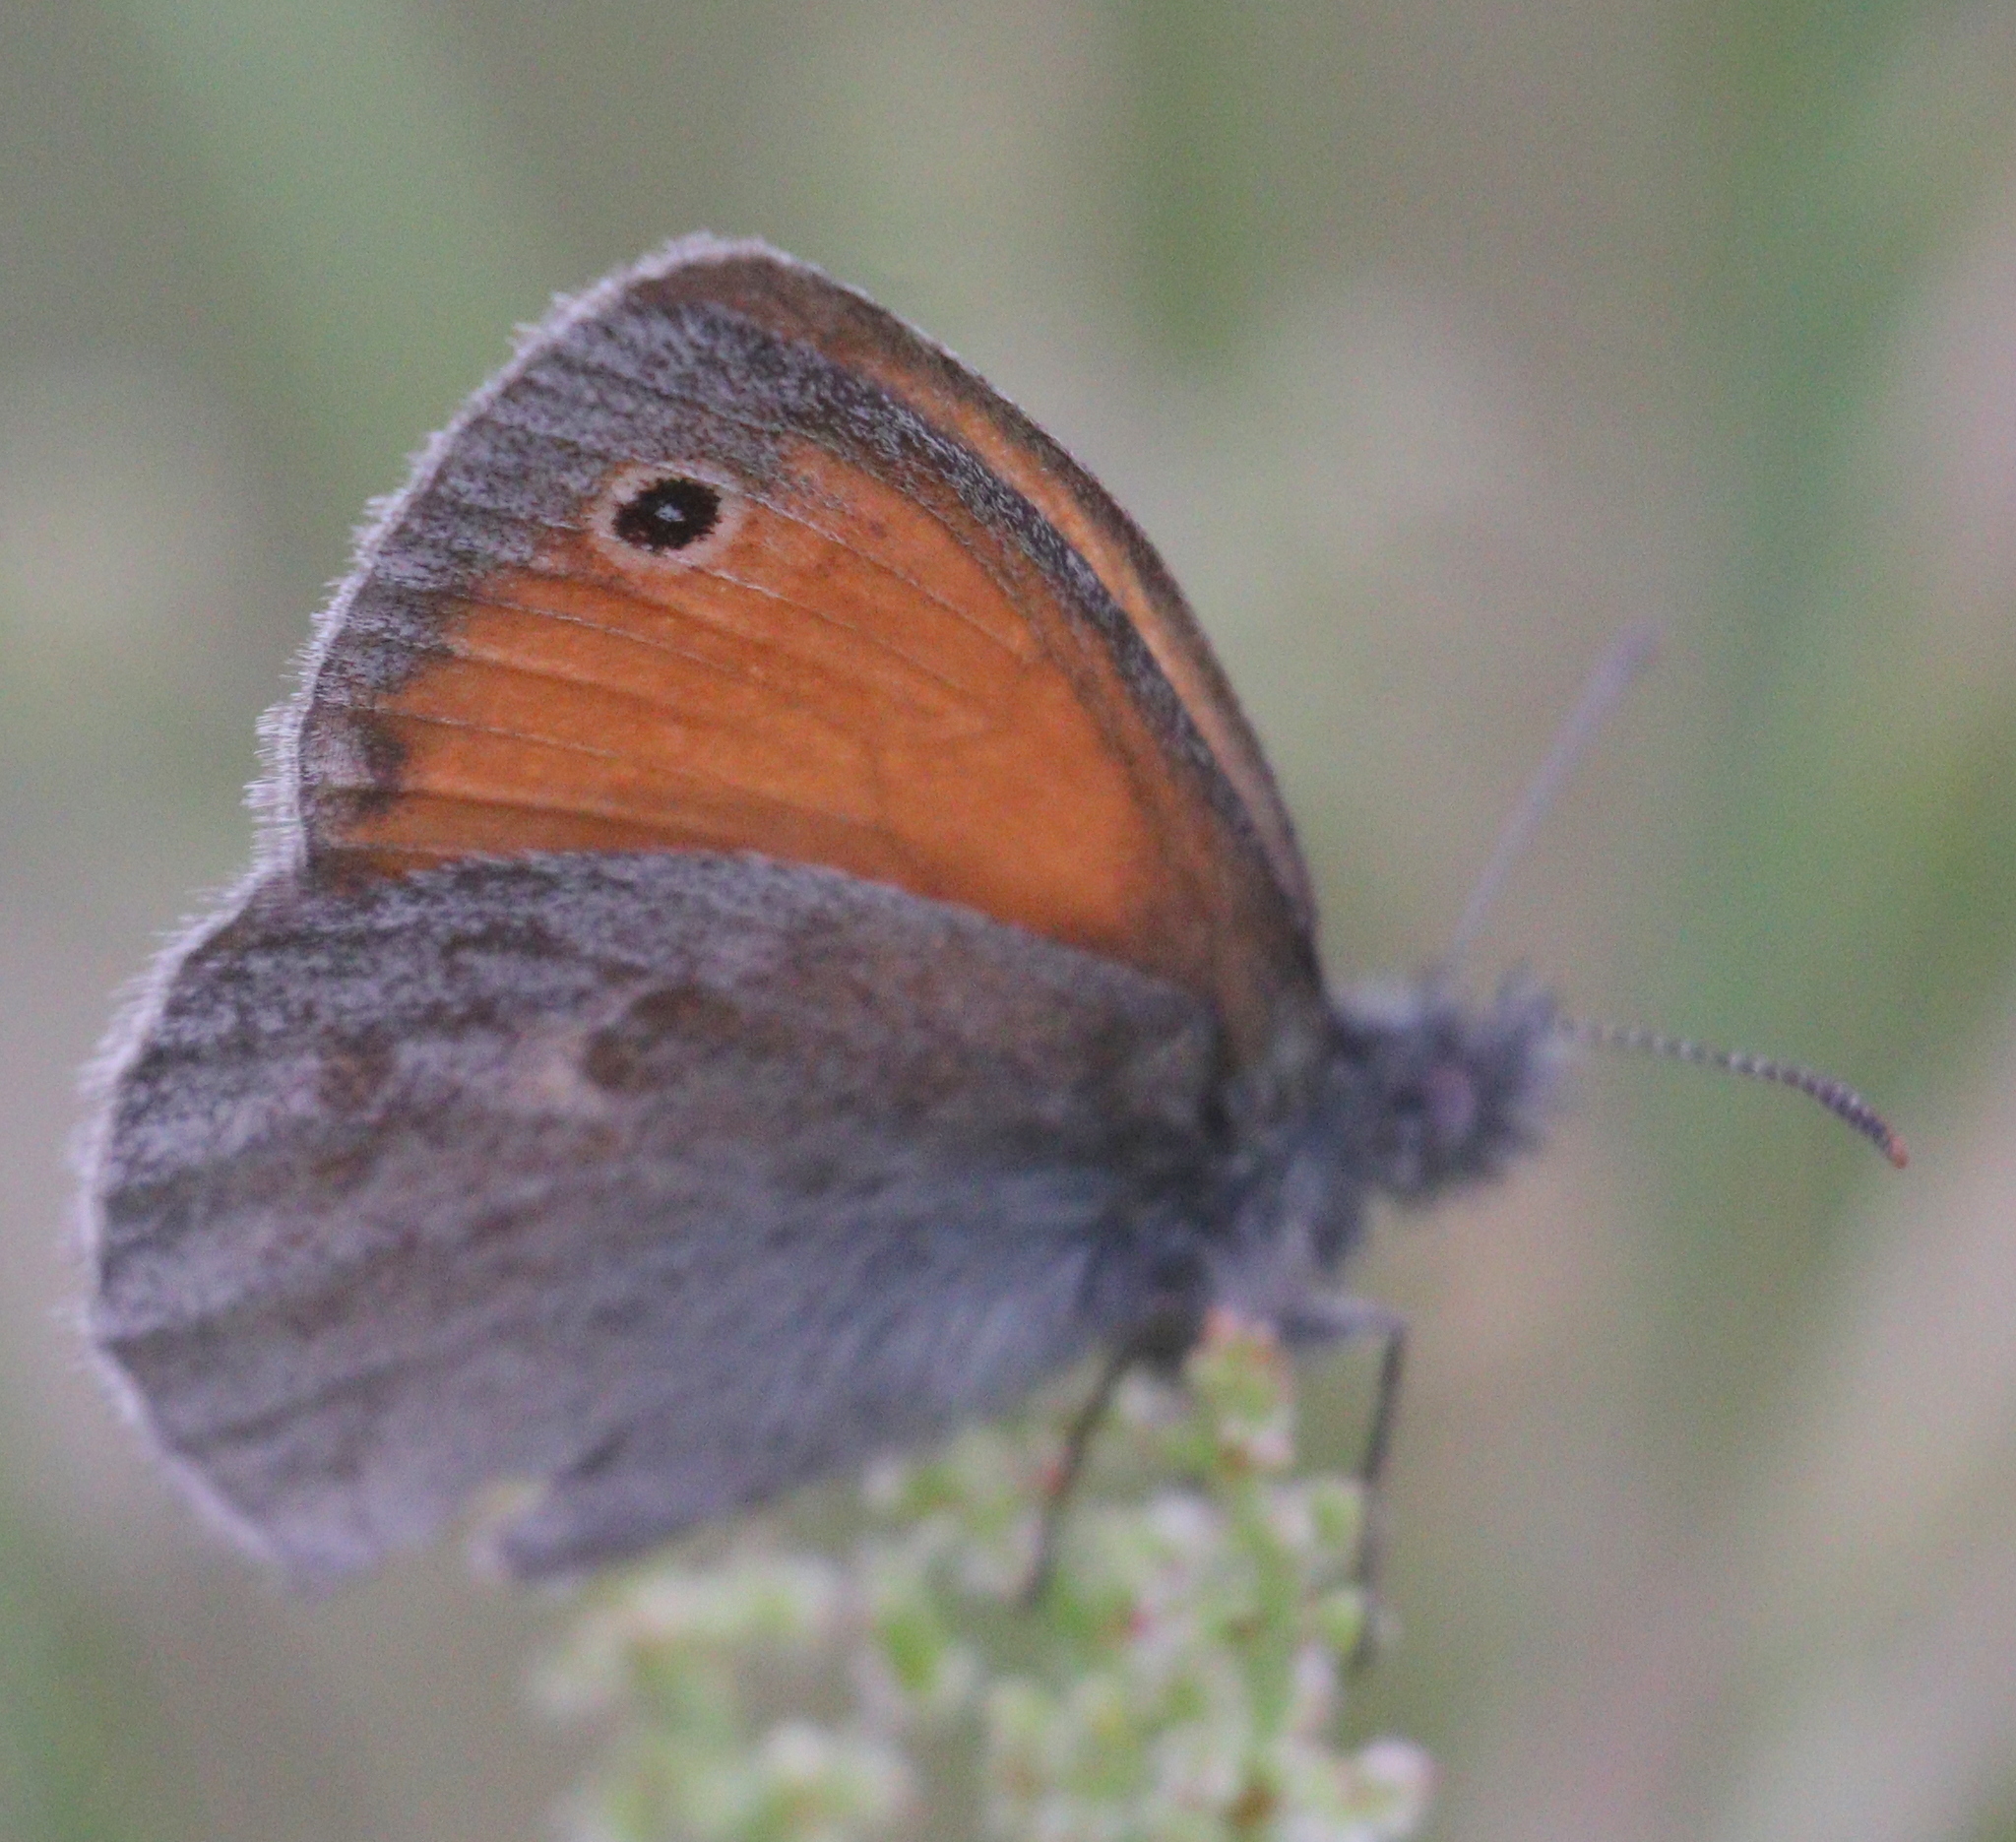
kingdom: Animalia
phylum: Arthropoda
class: Insecta
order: Lepidoptera
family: Nymphalidae
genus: Coenonympha
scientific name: Coenonympha pamphilus
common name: Small heath
